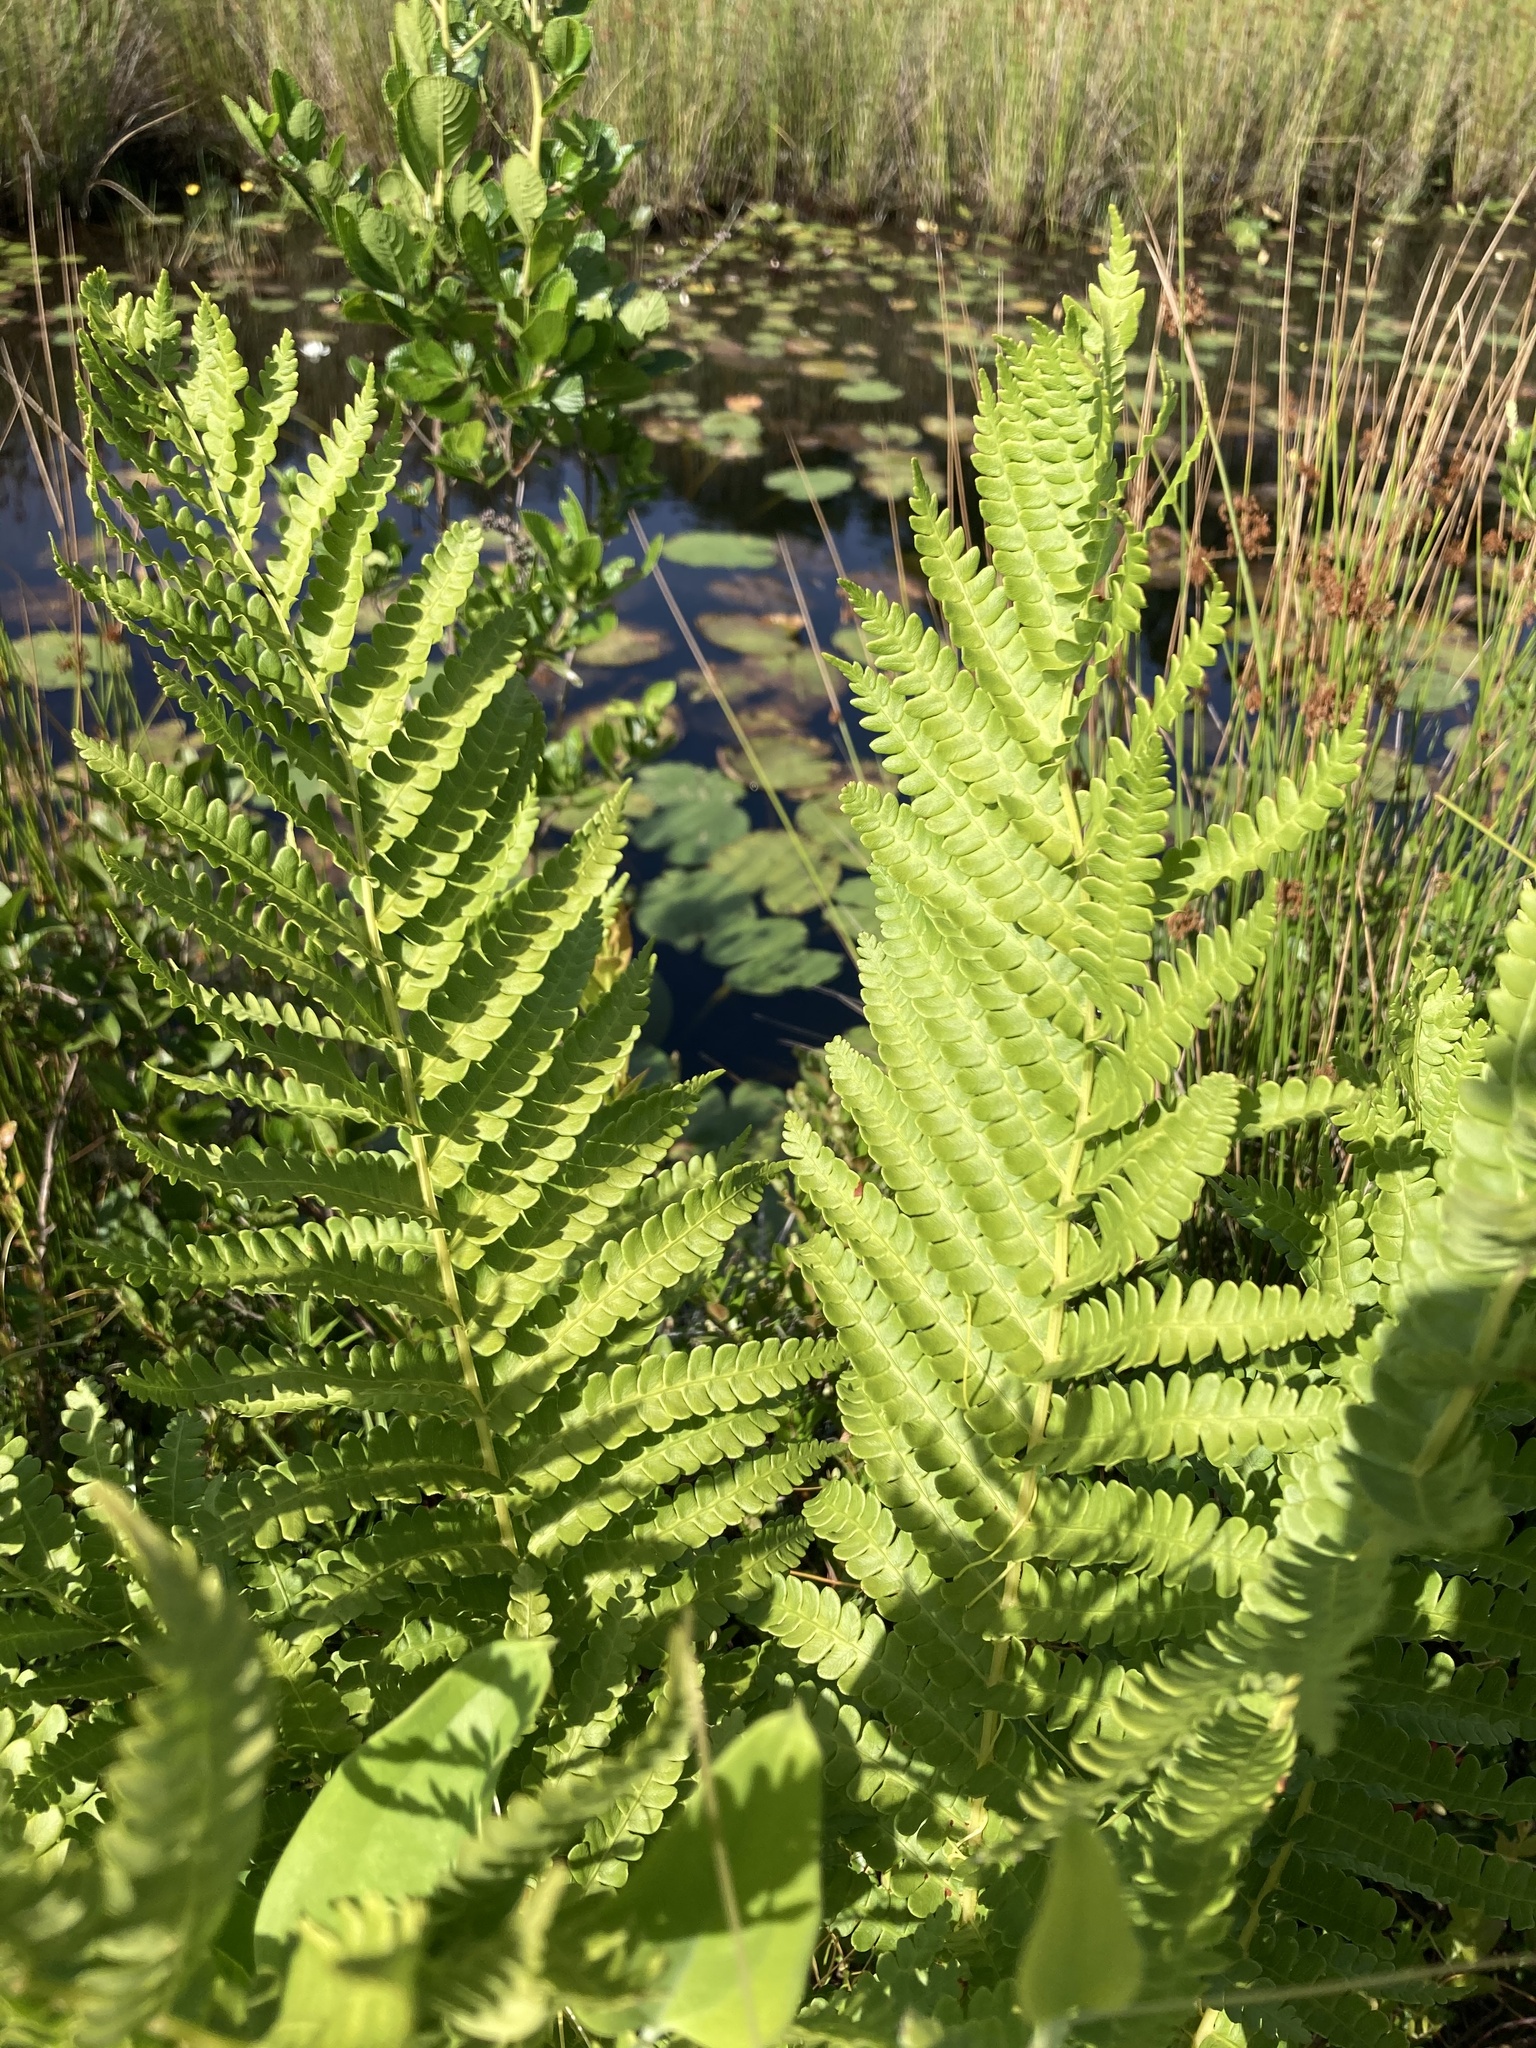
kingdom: Plantae
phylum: Tracheophyta
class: Polypodiopsida
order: Osmundales
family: Osmundaceae
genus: Osmundastrum
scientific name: Osmundastrum cinnamomeum
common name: Cinnamon fern
